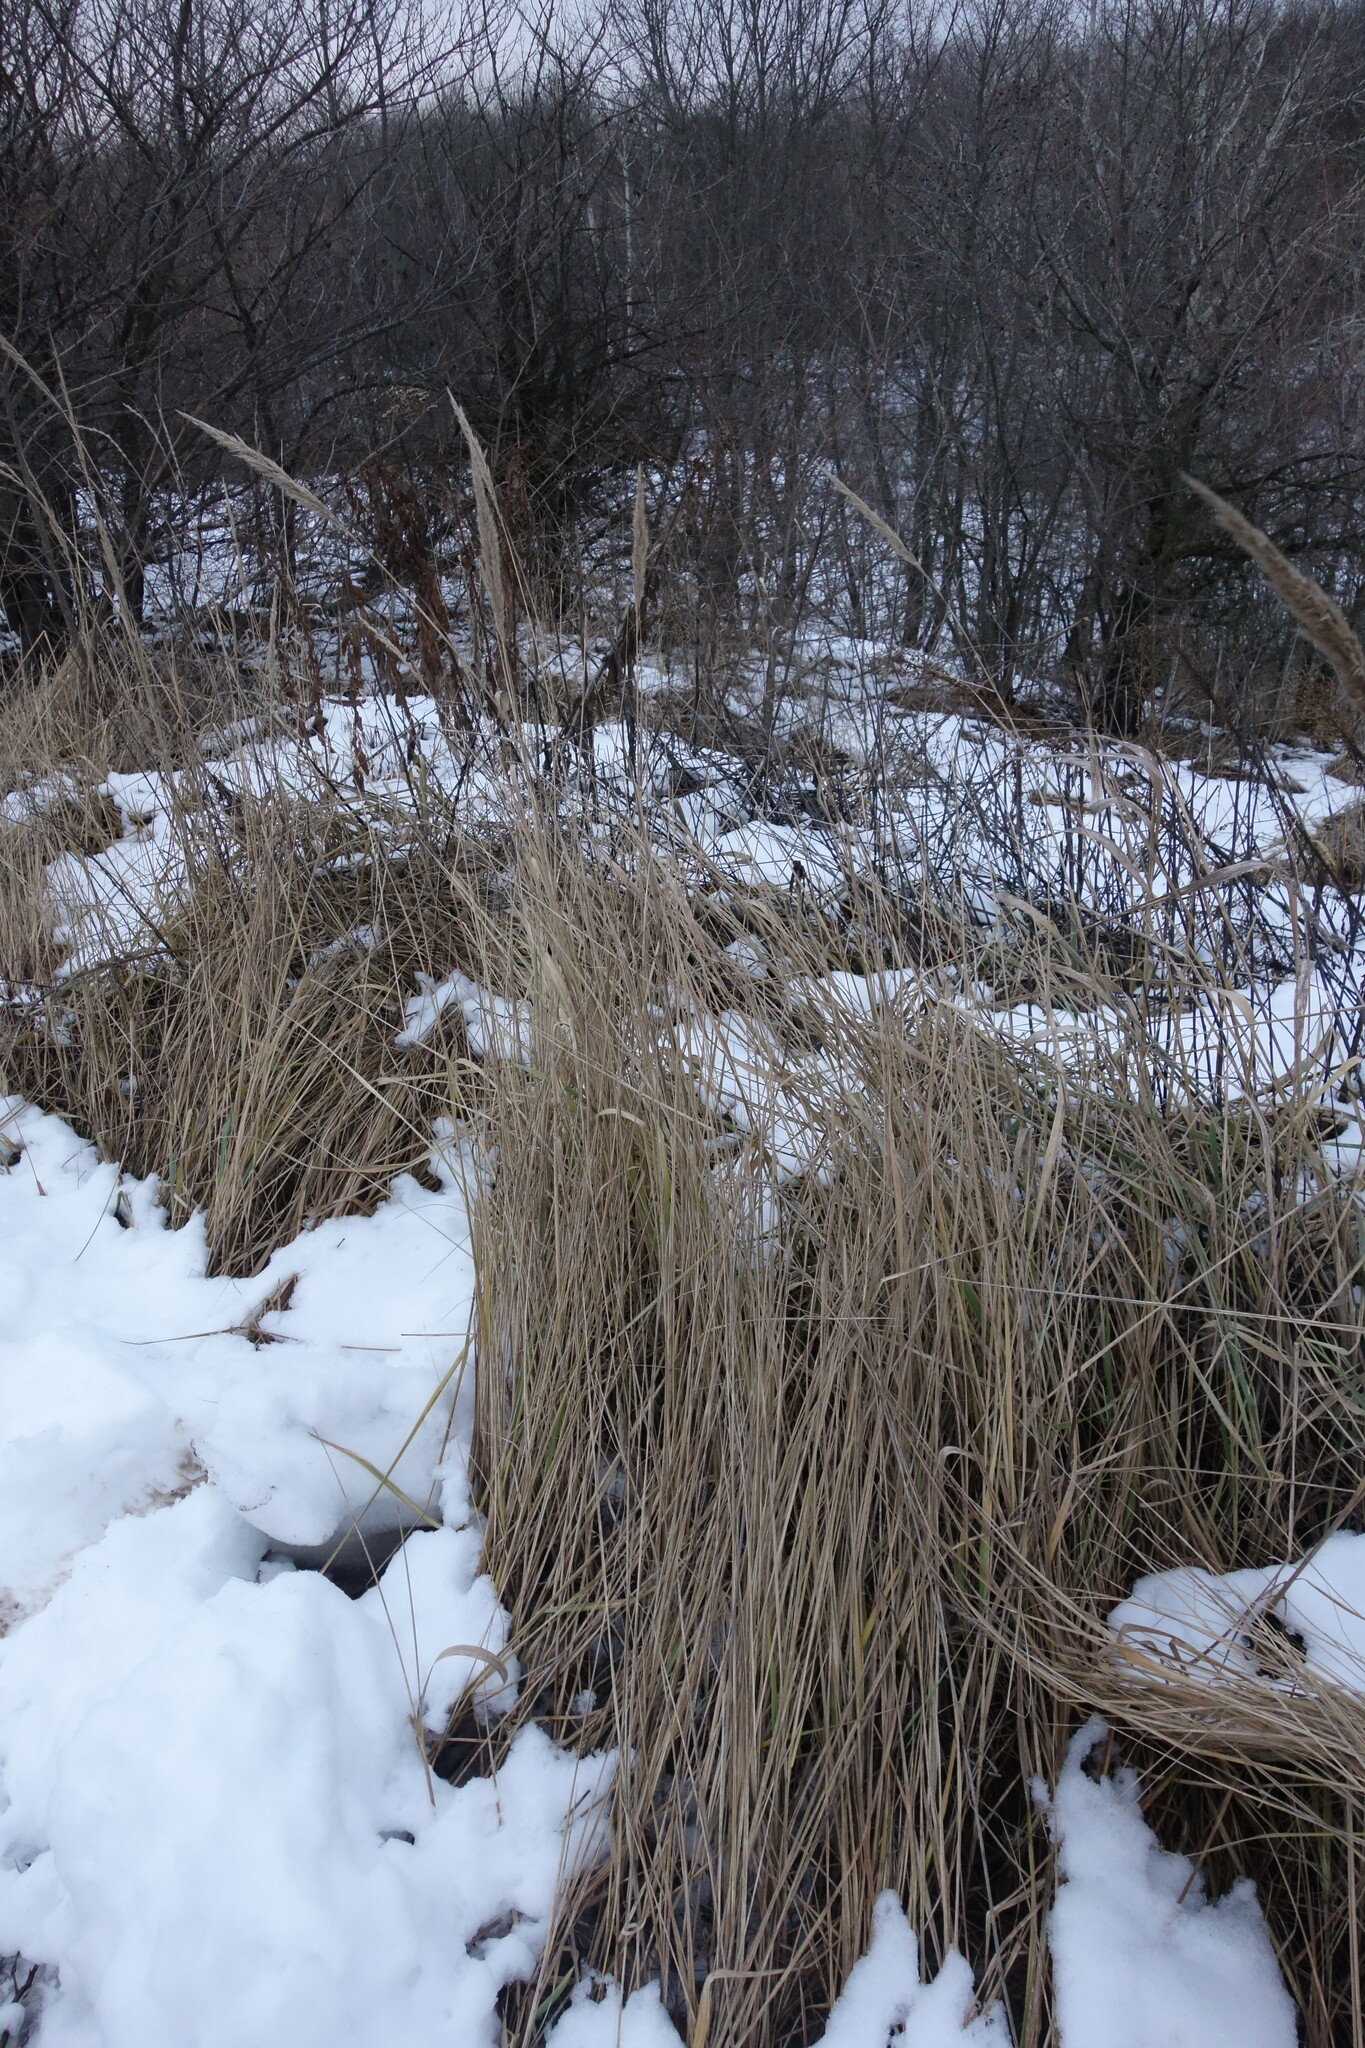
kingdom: Plantae
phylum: Tracheophyta
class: Liliopsida
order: Poales
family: Poaceae
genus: Calamagrostis
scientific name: Calamagrostis epigejos
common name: Wood small-reed
